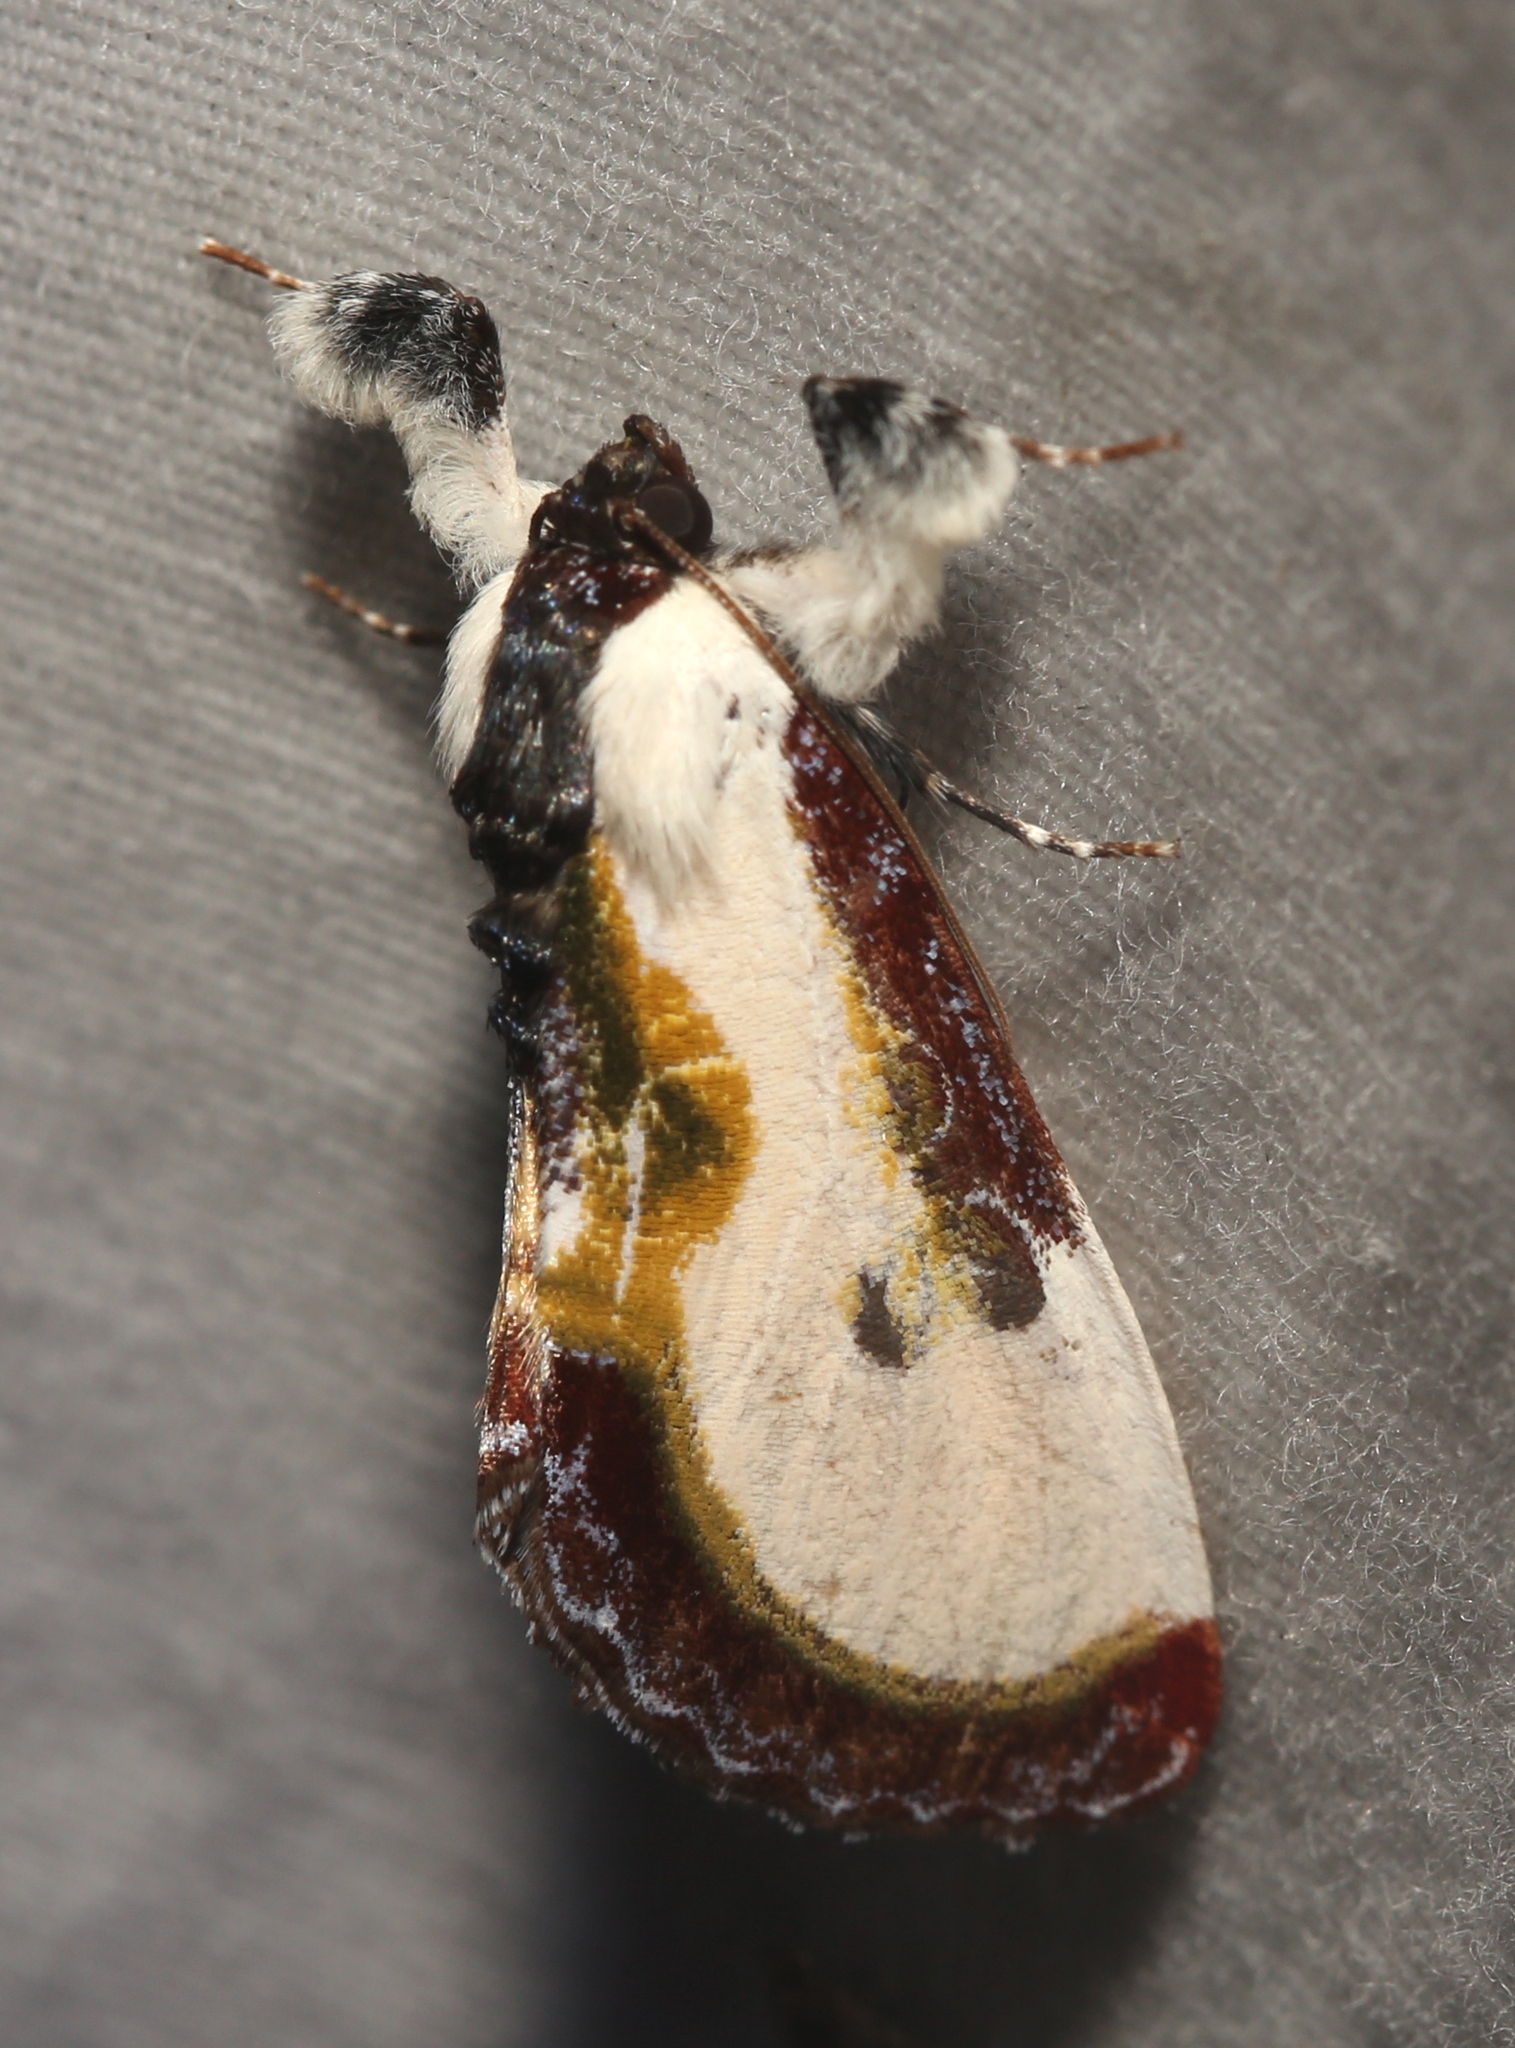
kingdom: Animalia
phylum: Arthropoda
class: Insecta
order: Lepidoptera
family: Noctuidae
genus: Eudryas
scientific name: Eudryas grata
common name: Beautiful wood-nymph
